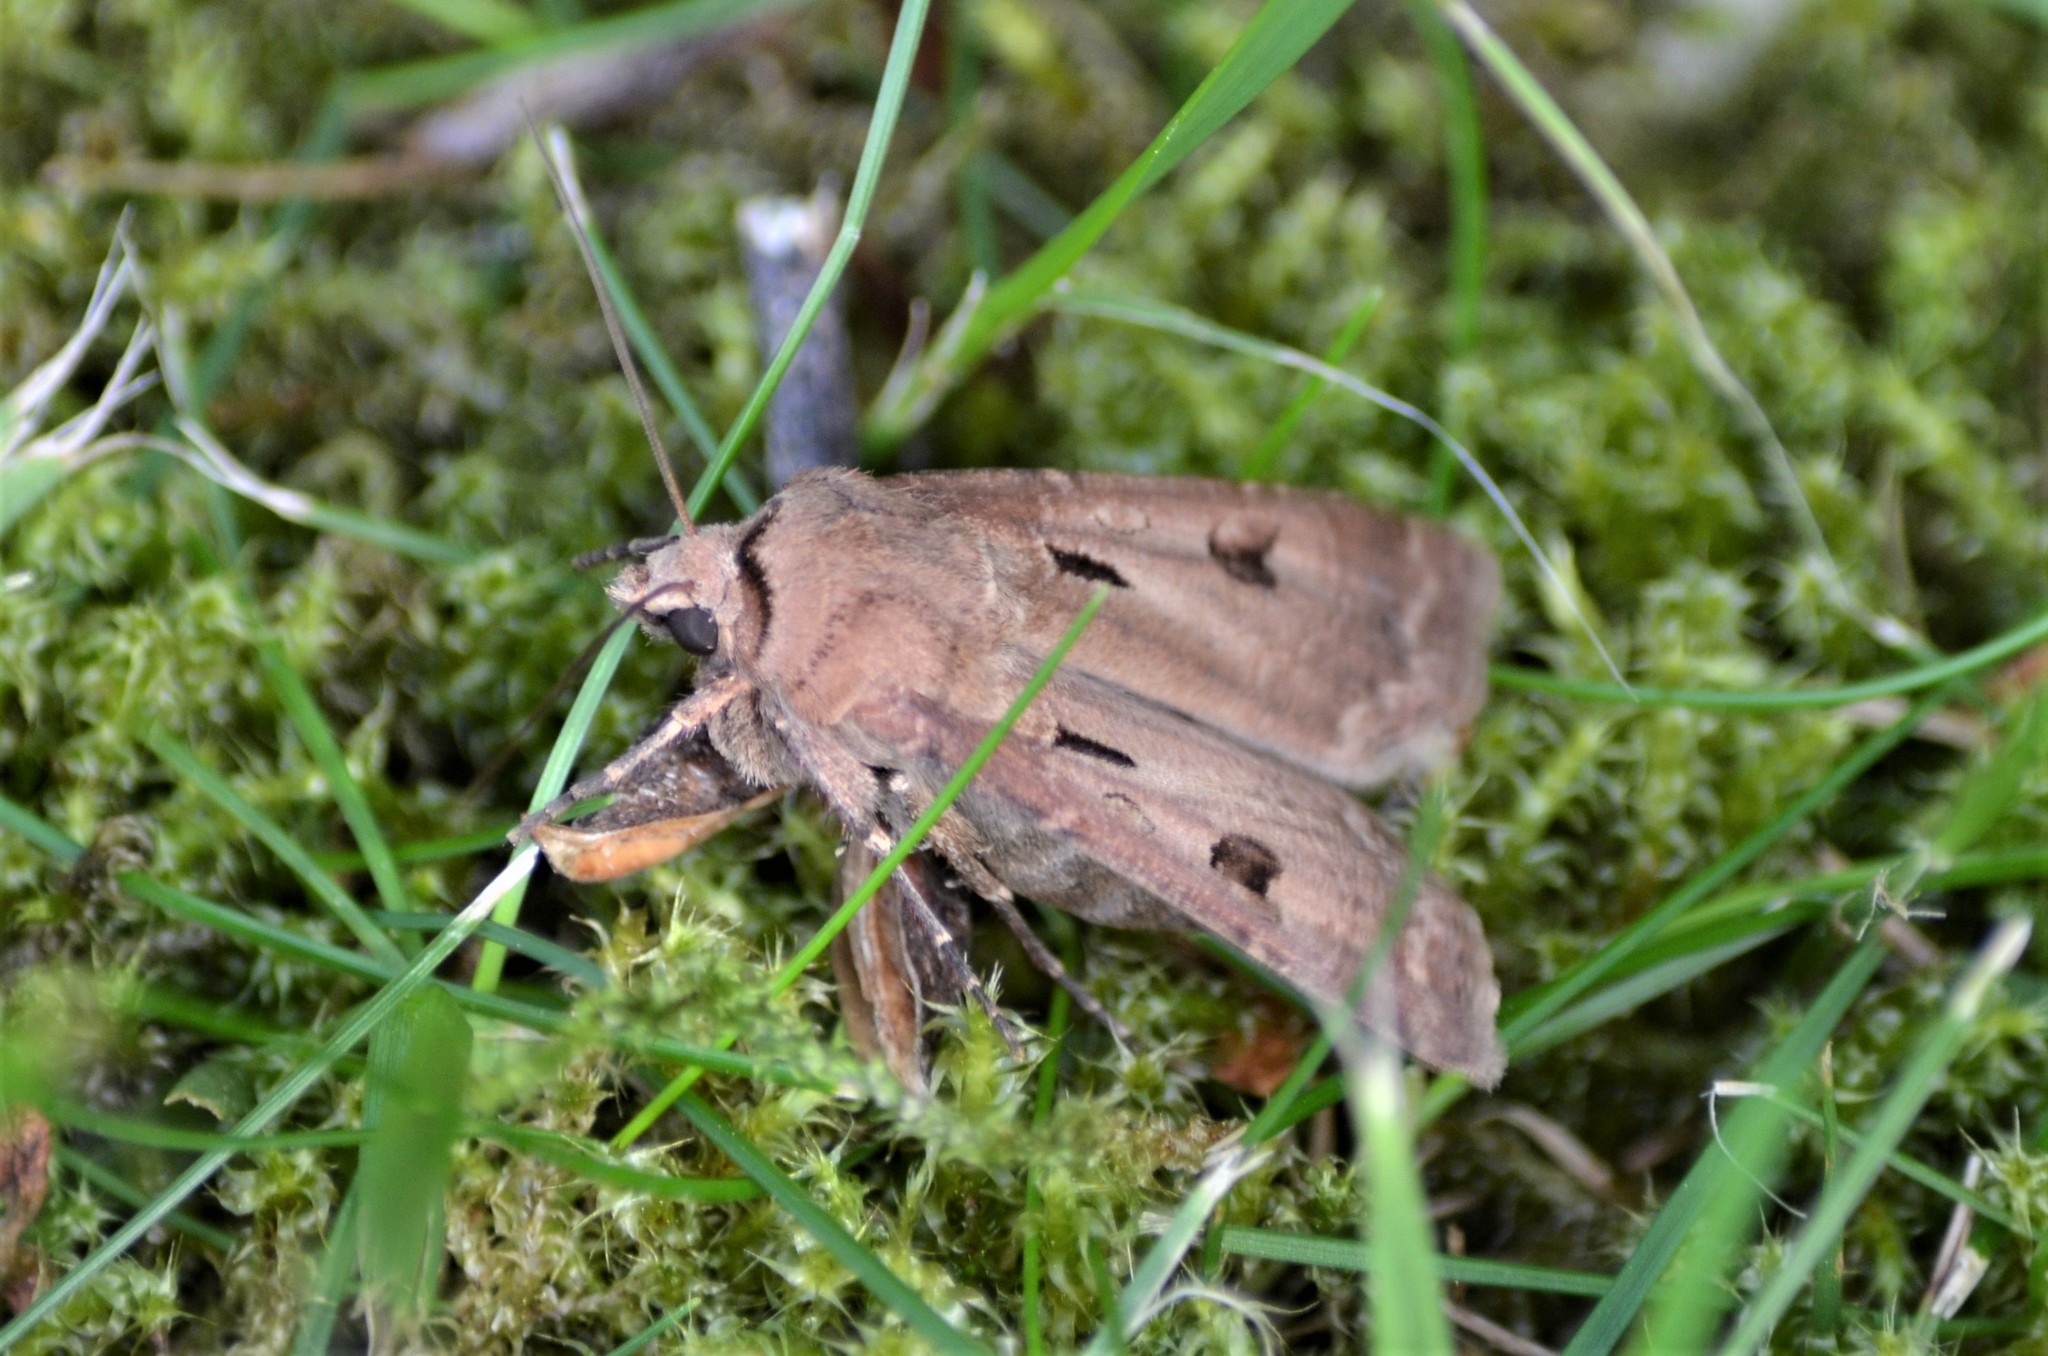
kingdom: Animalia
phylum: Arthropoda
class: Insecta
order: Lepidoptera
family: Noctuidae
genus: Agrotis
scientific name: Agrotis exclamationis
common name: Heart and dart
